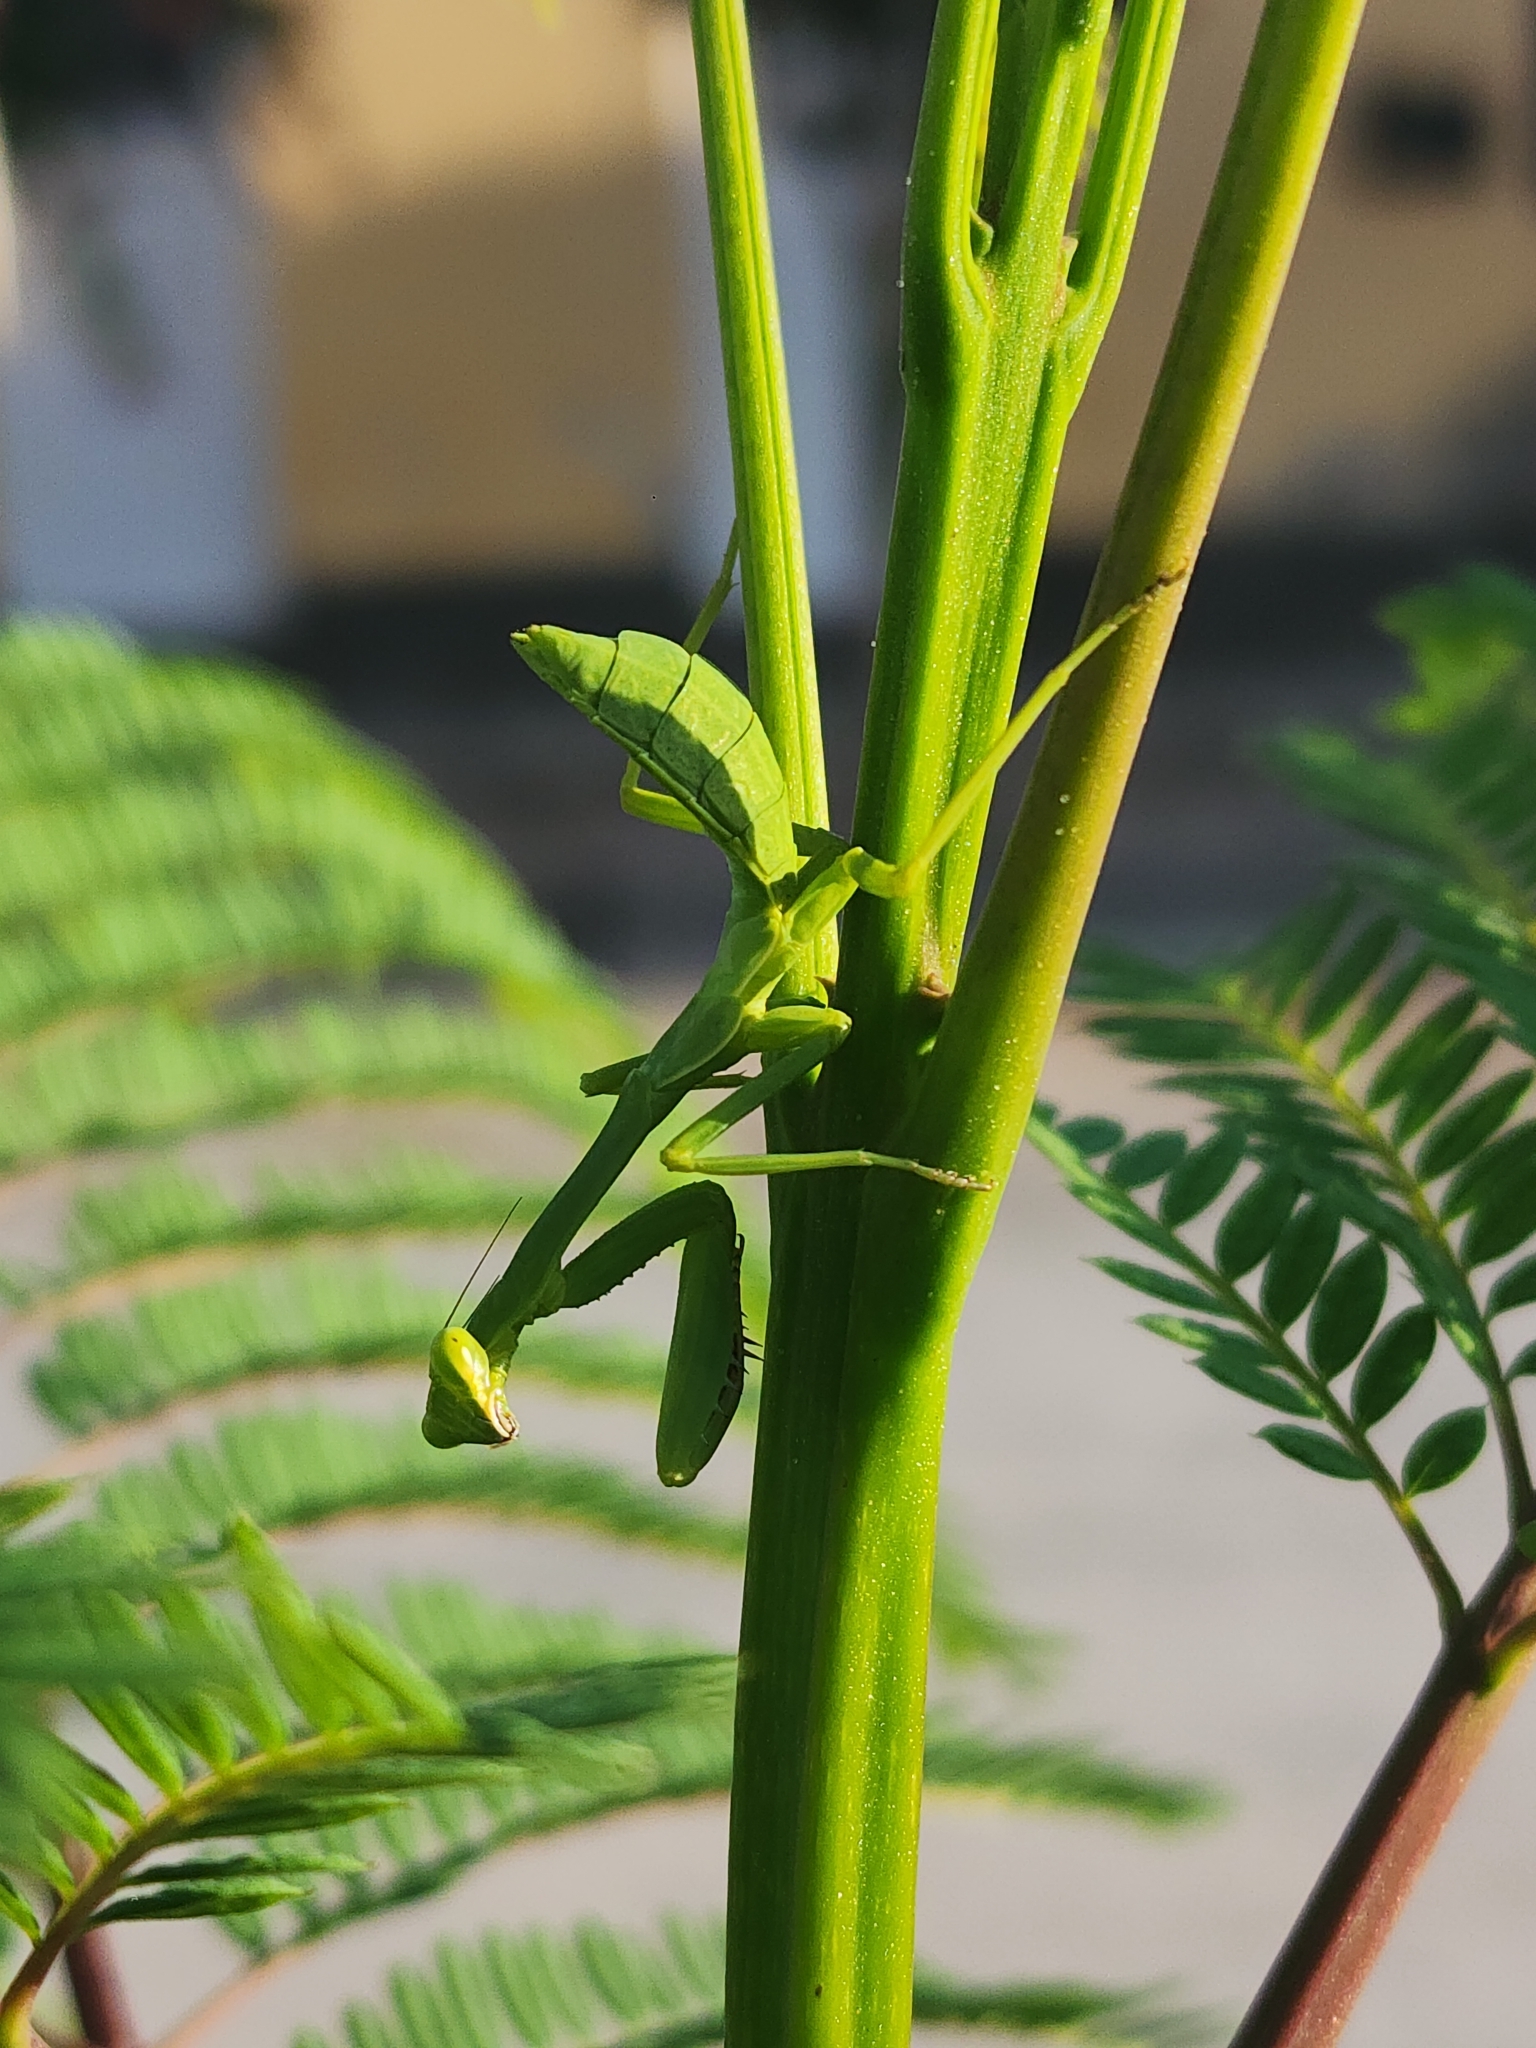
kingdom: Animalia
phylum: Arthropoda
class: Insecta
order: Mantodea
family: Mantidae
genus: Stagmatoptera
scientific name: Stagmatoptera hyaloptera
